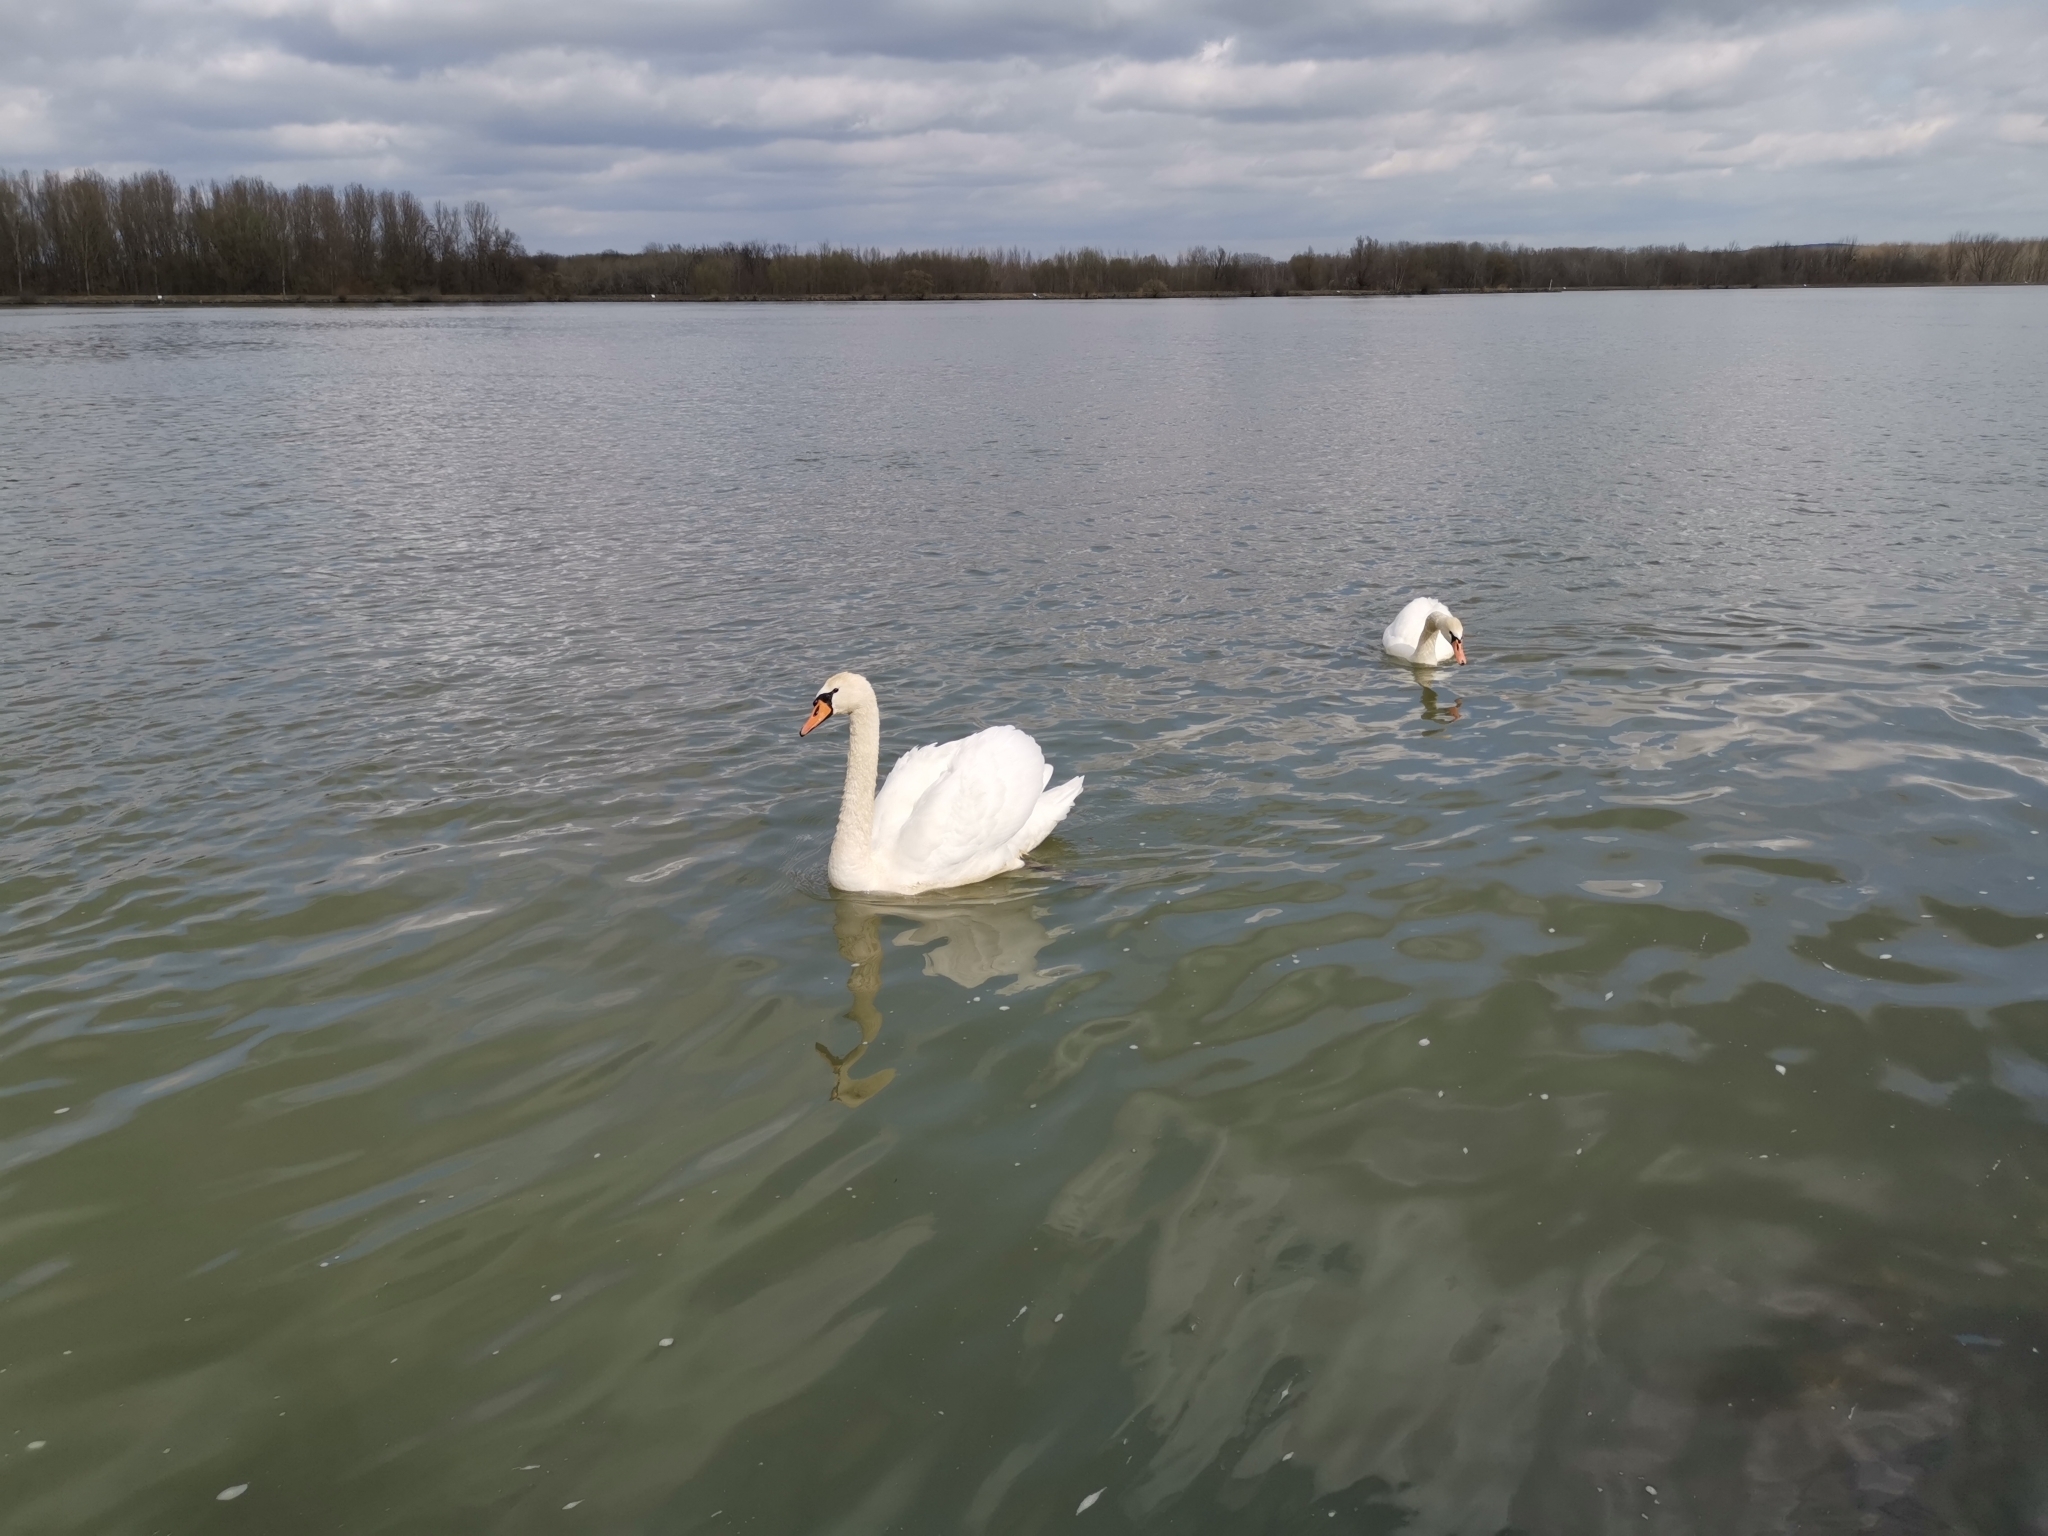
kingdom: Animalia
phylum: Chordata
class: Aves
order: Anseriformes
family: Anatidae
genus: Cygnus
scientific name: Cygnus olor
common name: Mute swan
